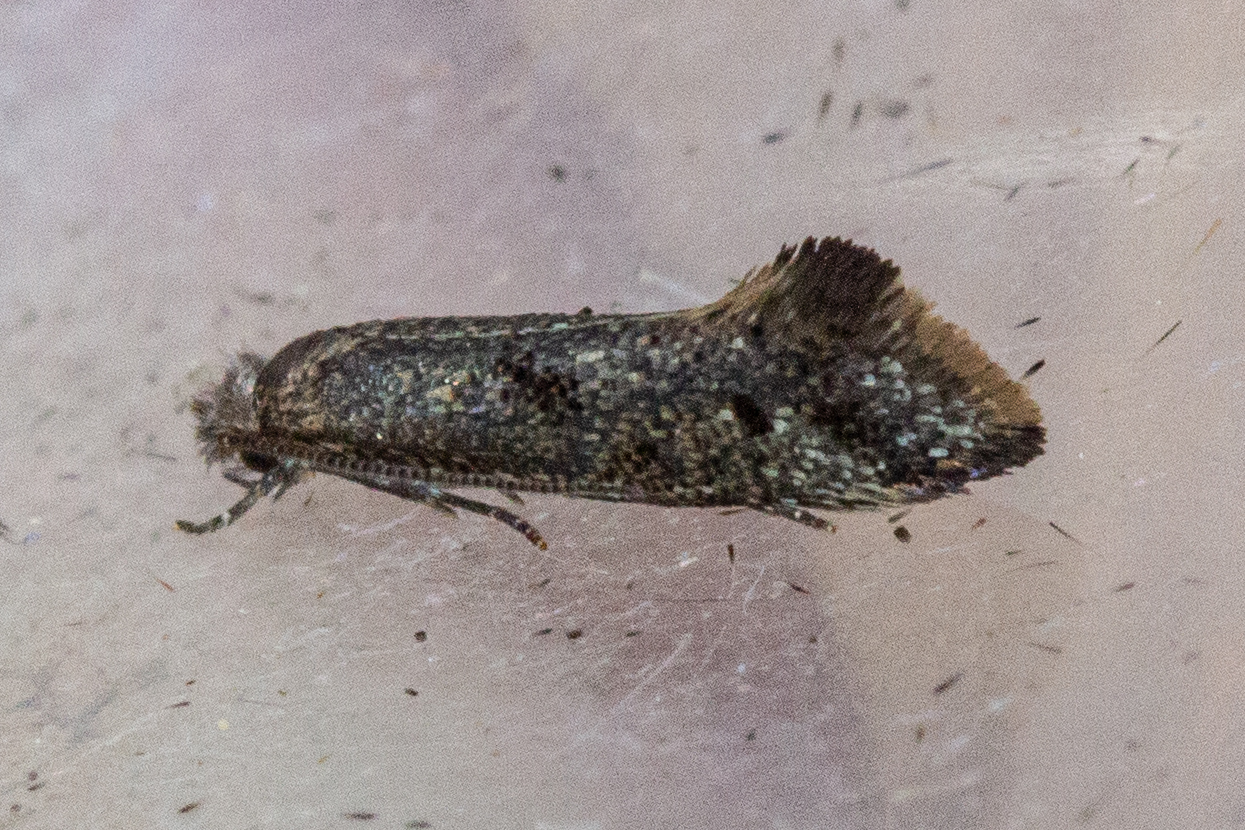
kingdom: Animalia
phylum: Arthropoda
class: Insecta
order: Lepidoptera
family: Tineidae
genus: Tinea
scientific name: Tinea mochlota
